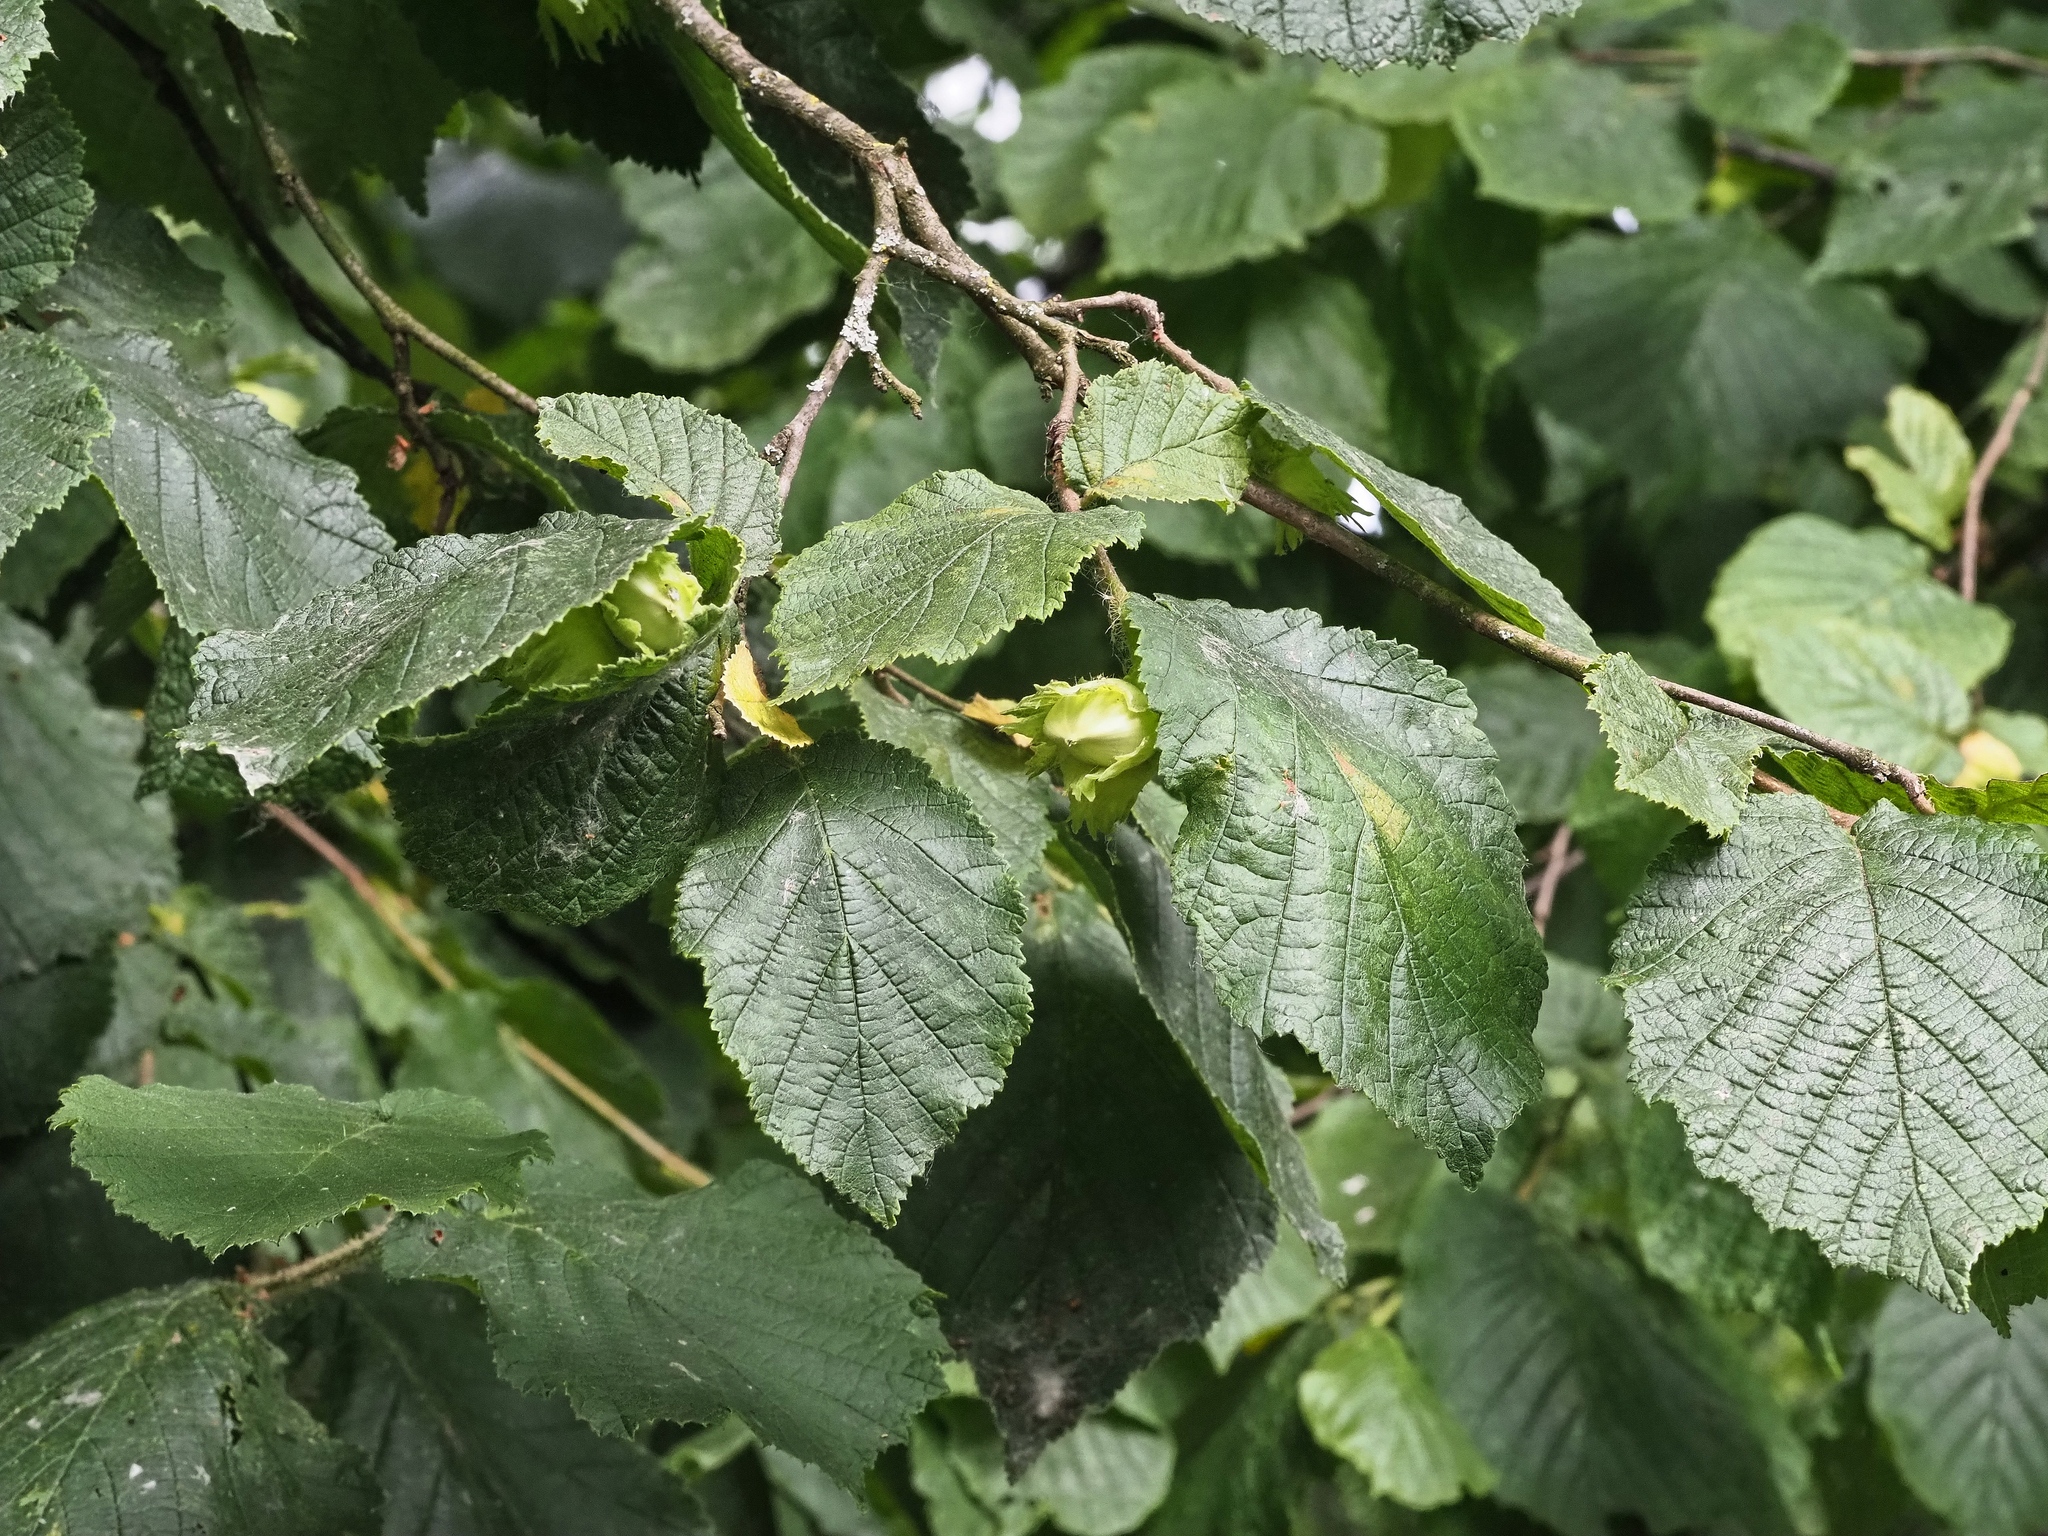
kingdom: Plantae
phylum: Tracheophyta
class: Magnoliopsida
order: Fagales
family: Betulaceae
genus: Corylus
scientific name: Corylus avellana
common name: European hazel
